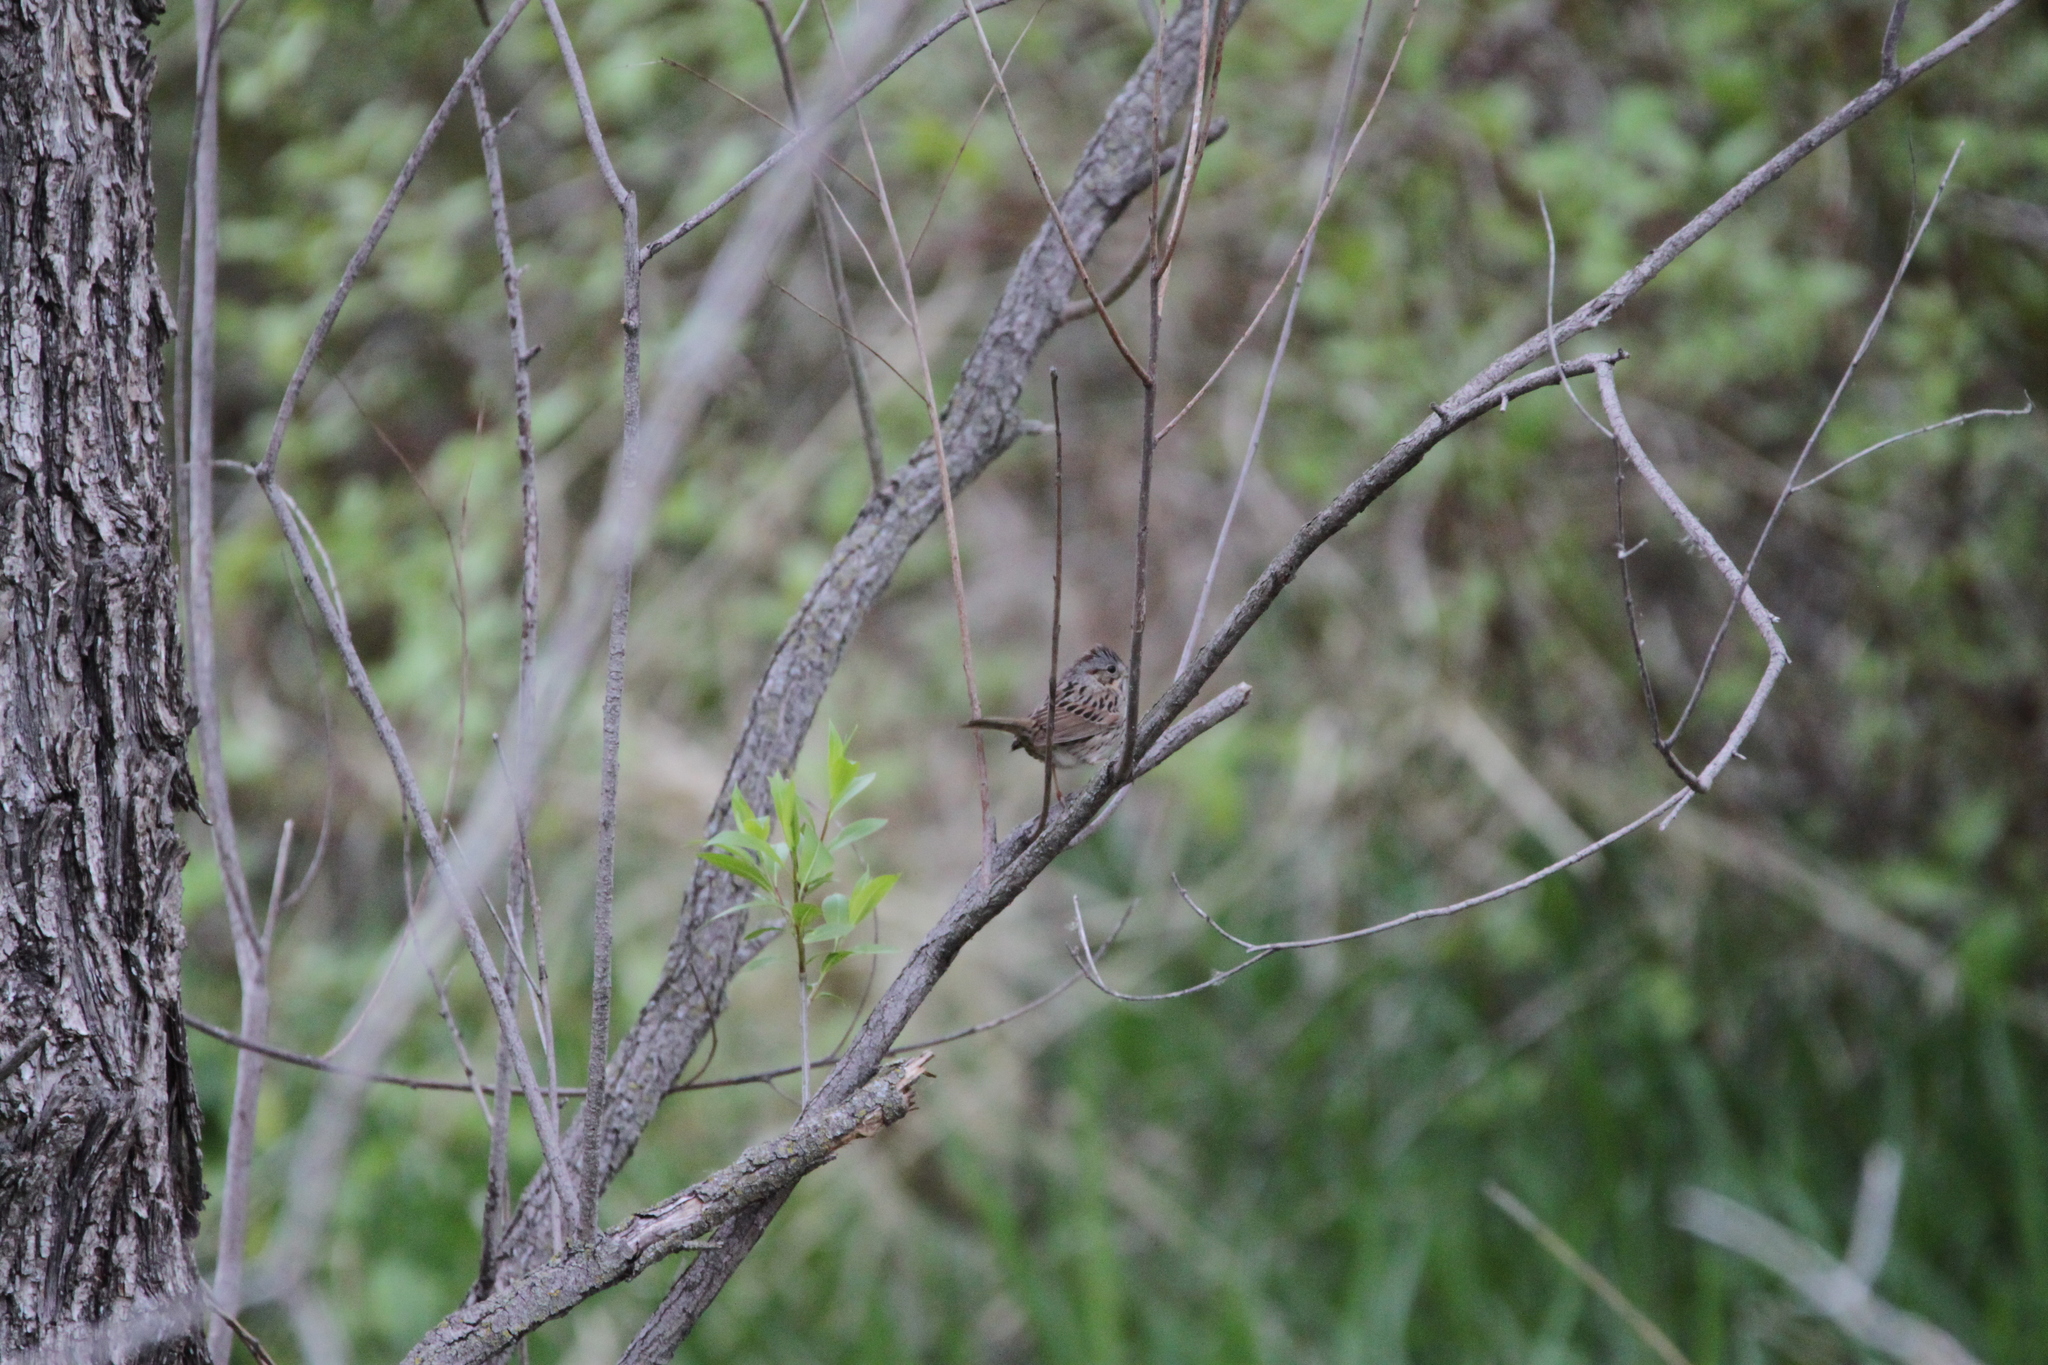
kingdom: Animalia
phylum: Chordata
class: Aves
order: Passeriformes
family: Passerellidae
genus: Melospiza
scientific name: Melospiza lincolnii
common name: Lincoln's sparrow
